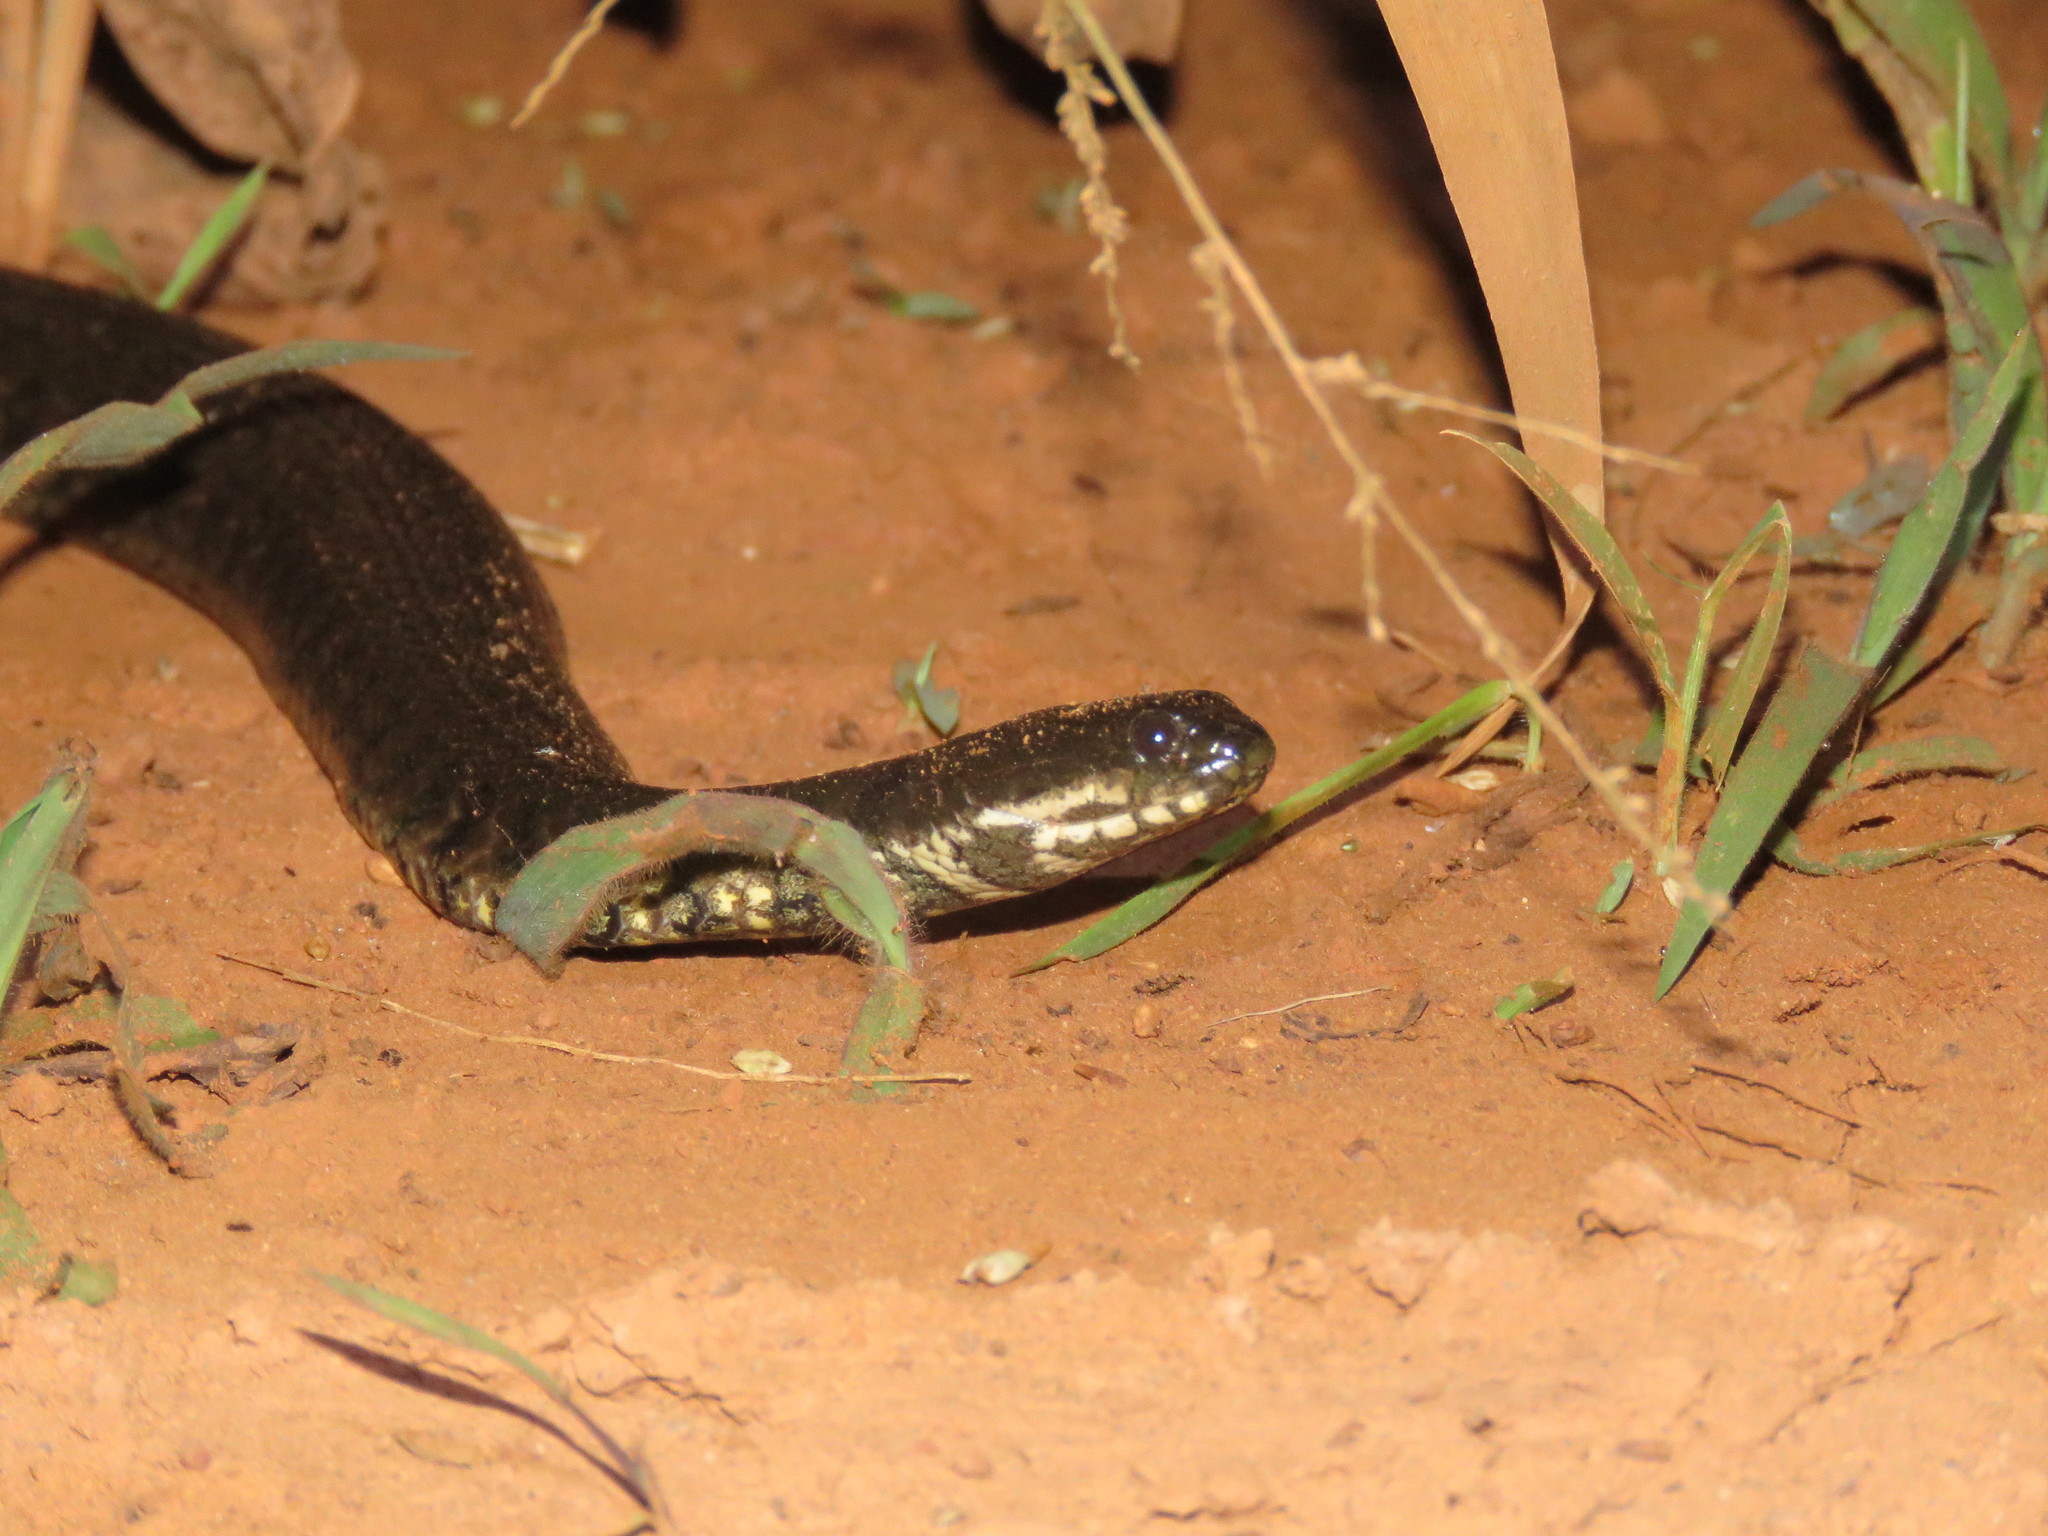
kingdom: Animalia
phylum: Chordata
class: Squamata
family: Colubridae
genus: Helicops
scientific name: Helicops polylepis
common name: Norman's keelback
